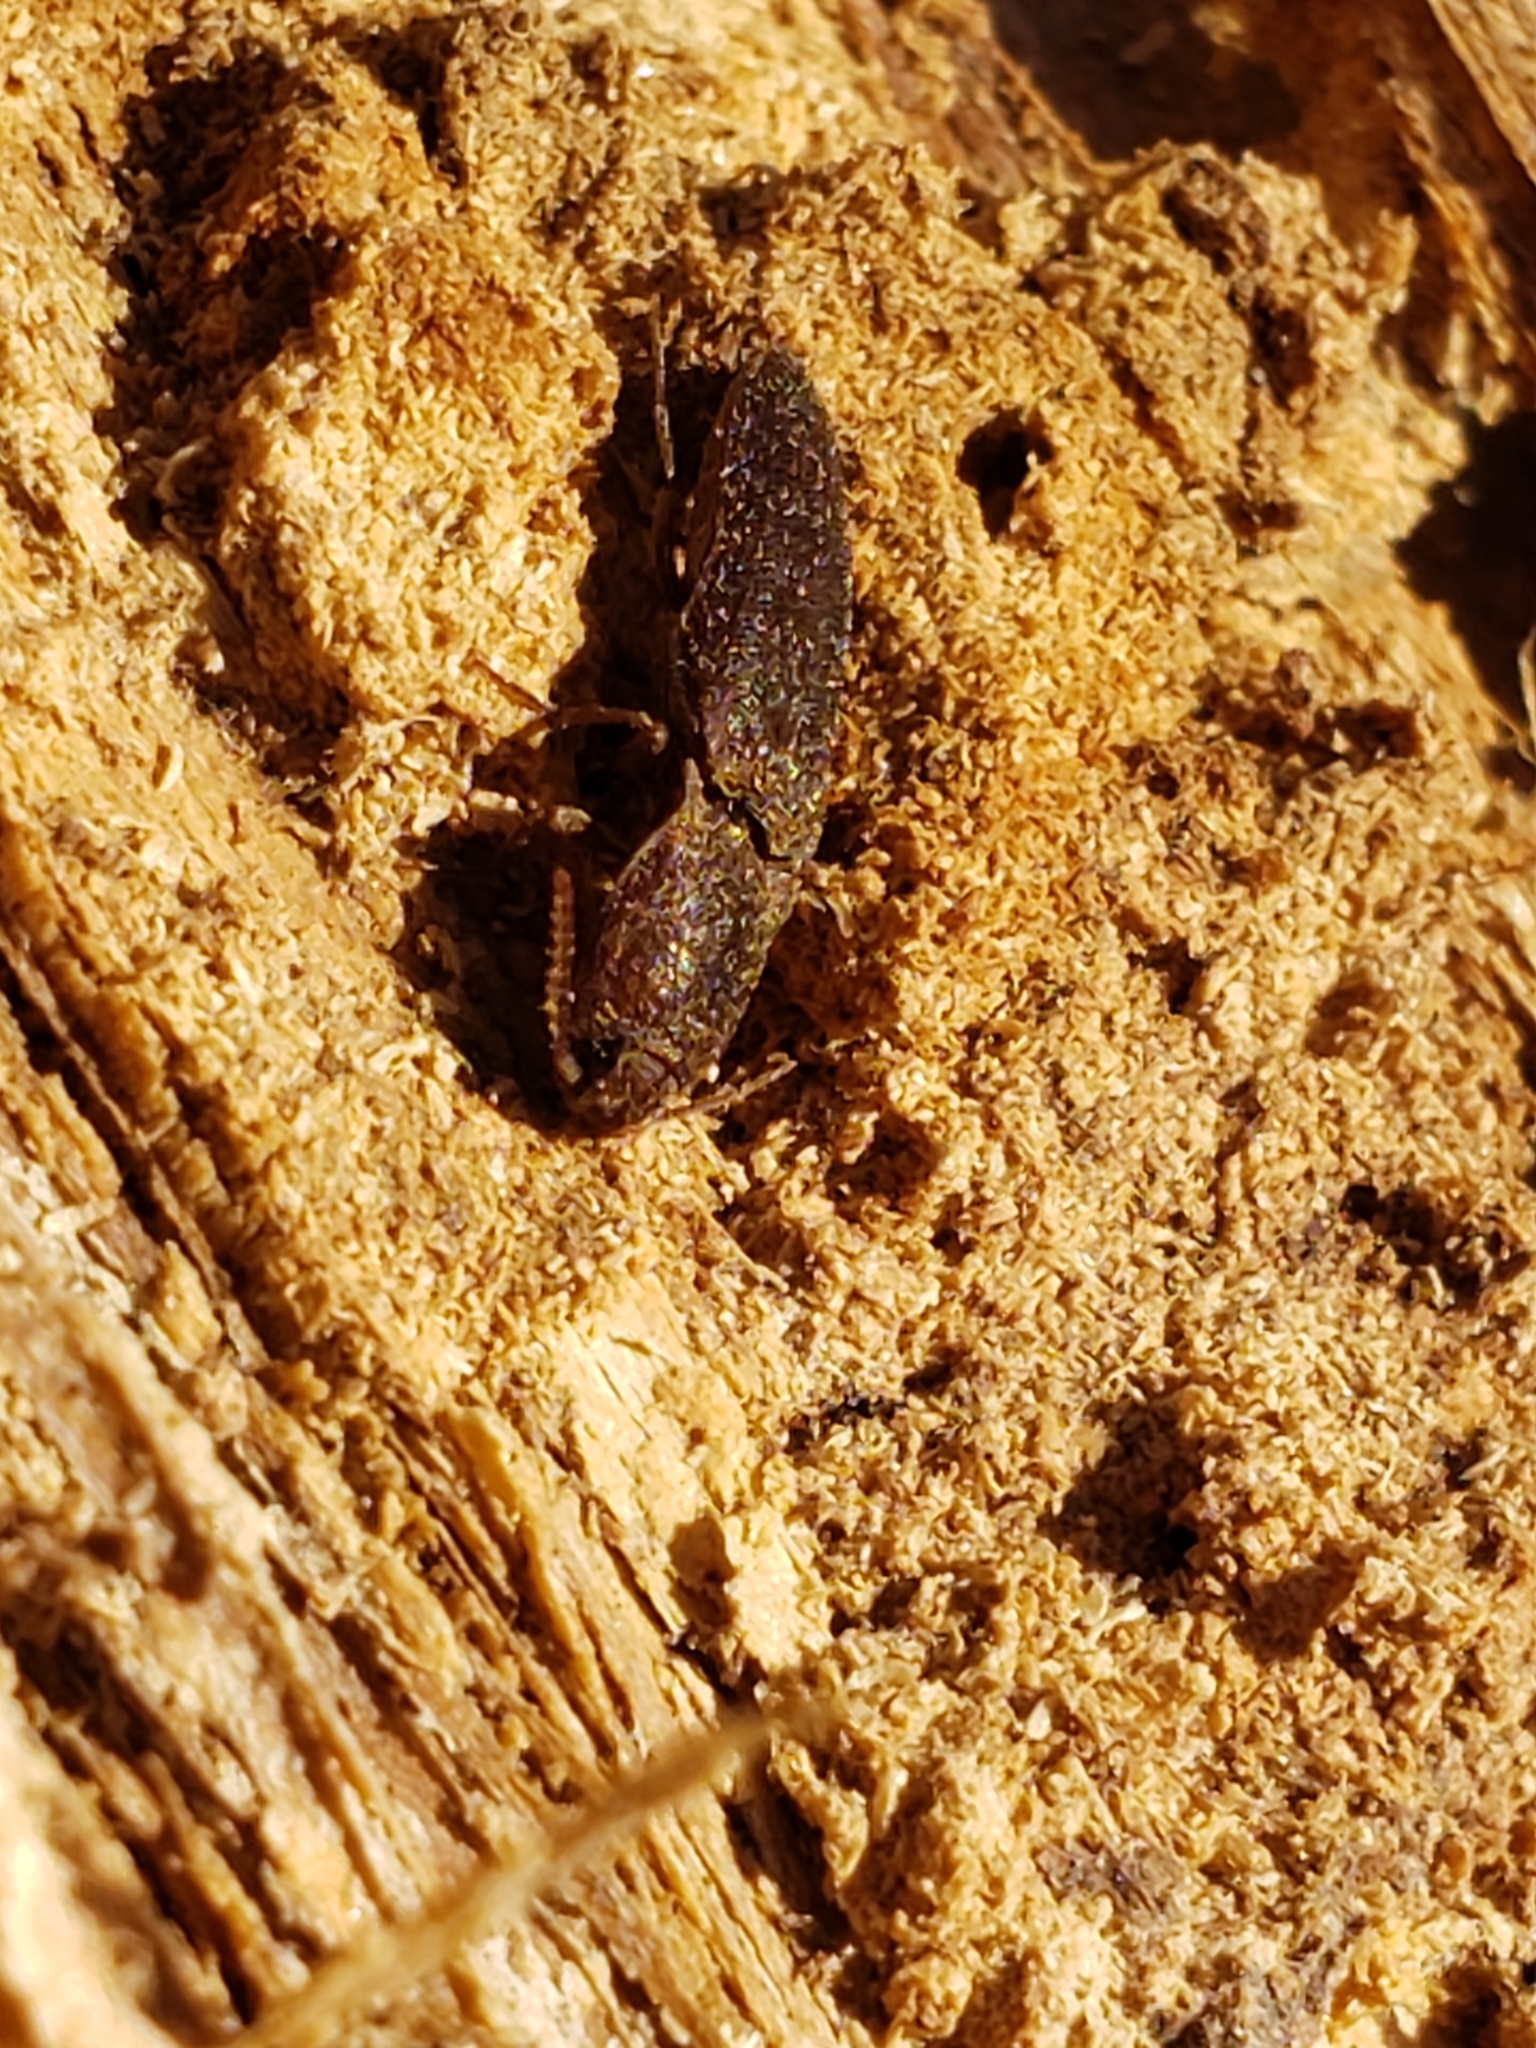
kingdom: Animalia
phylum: Arthropoda
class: Insecta
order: Coleoptera
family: Elateridae
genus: Lacon
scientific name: Lacon impressicollis
